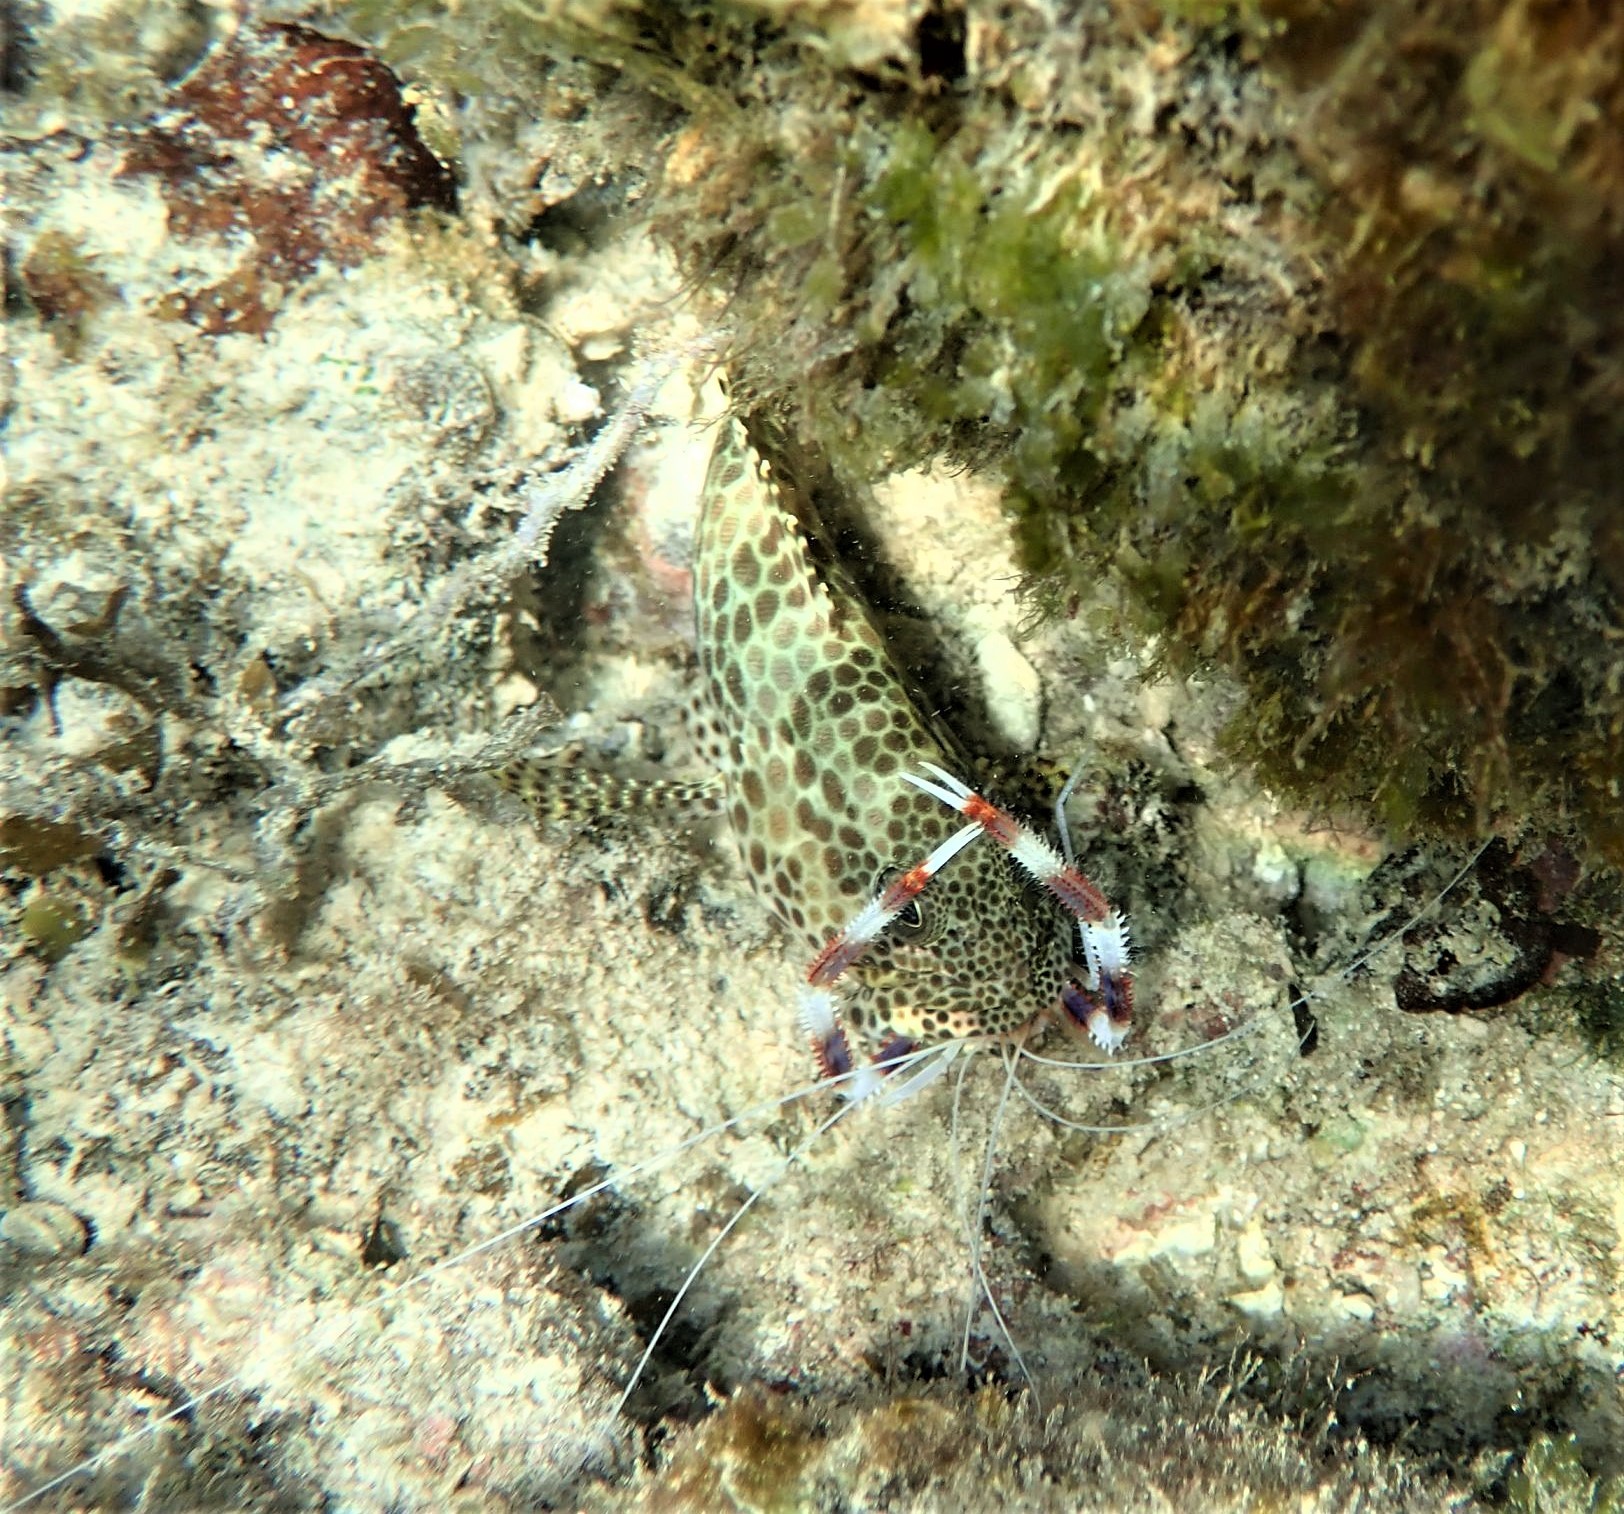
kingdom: Animalia
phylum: Arthropoda
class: Malacostraca
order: Decapoda
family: Stenopodidae
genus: Stenopus
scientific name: Stenopus hispidus
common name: Banded coral shrimp
